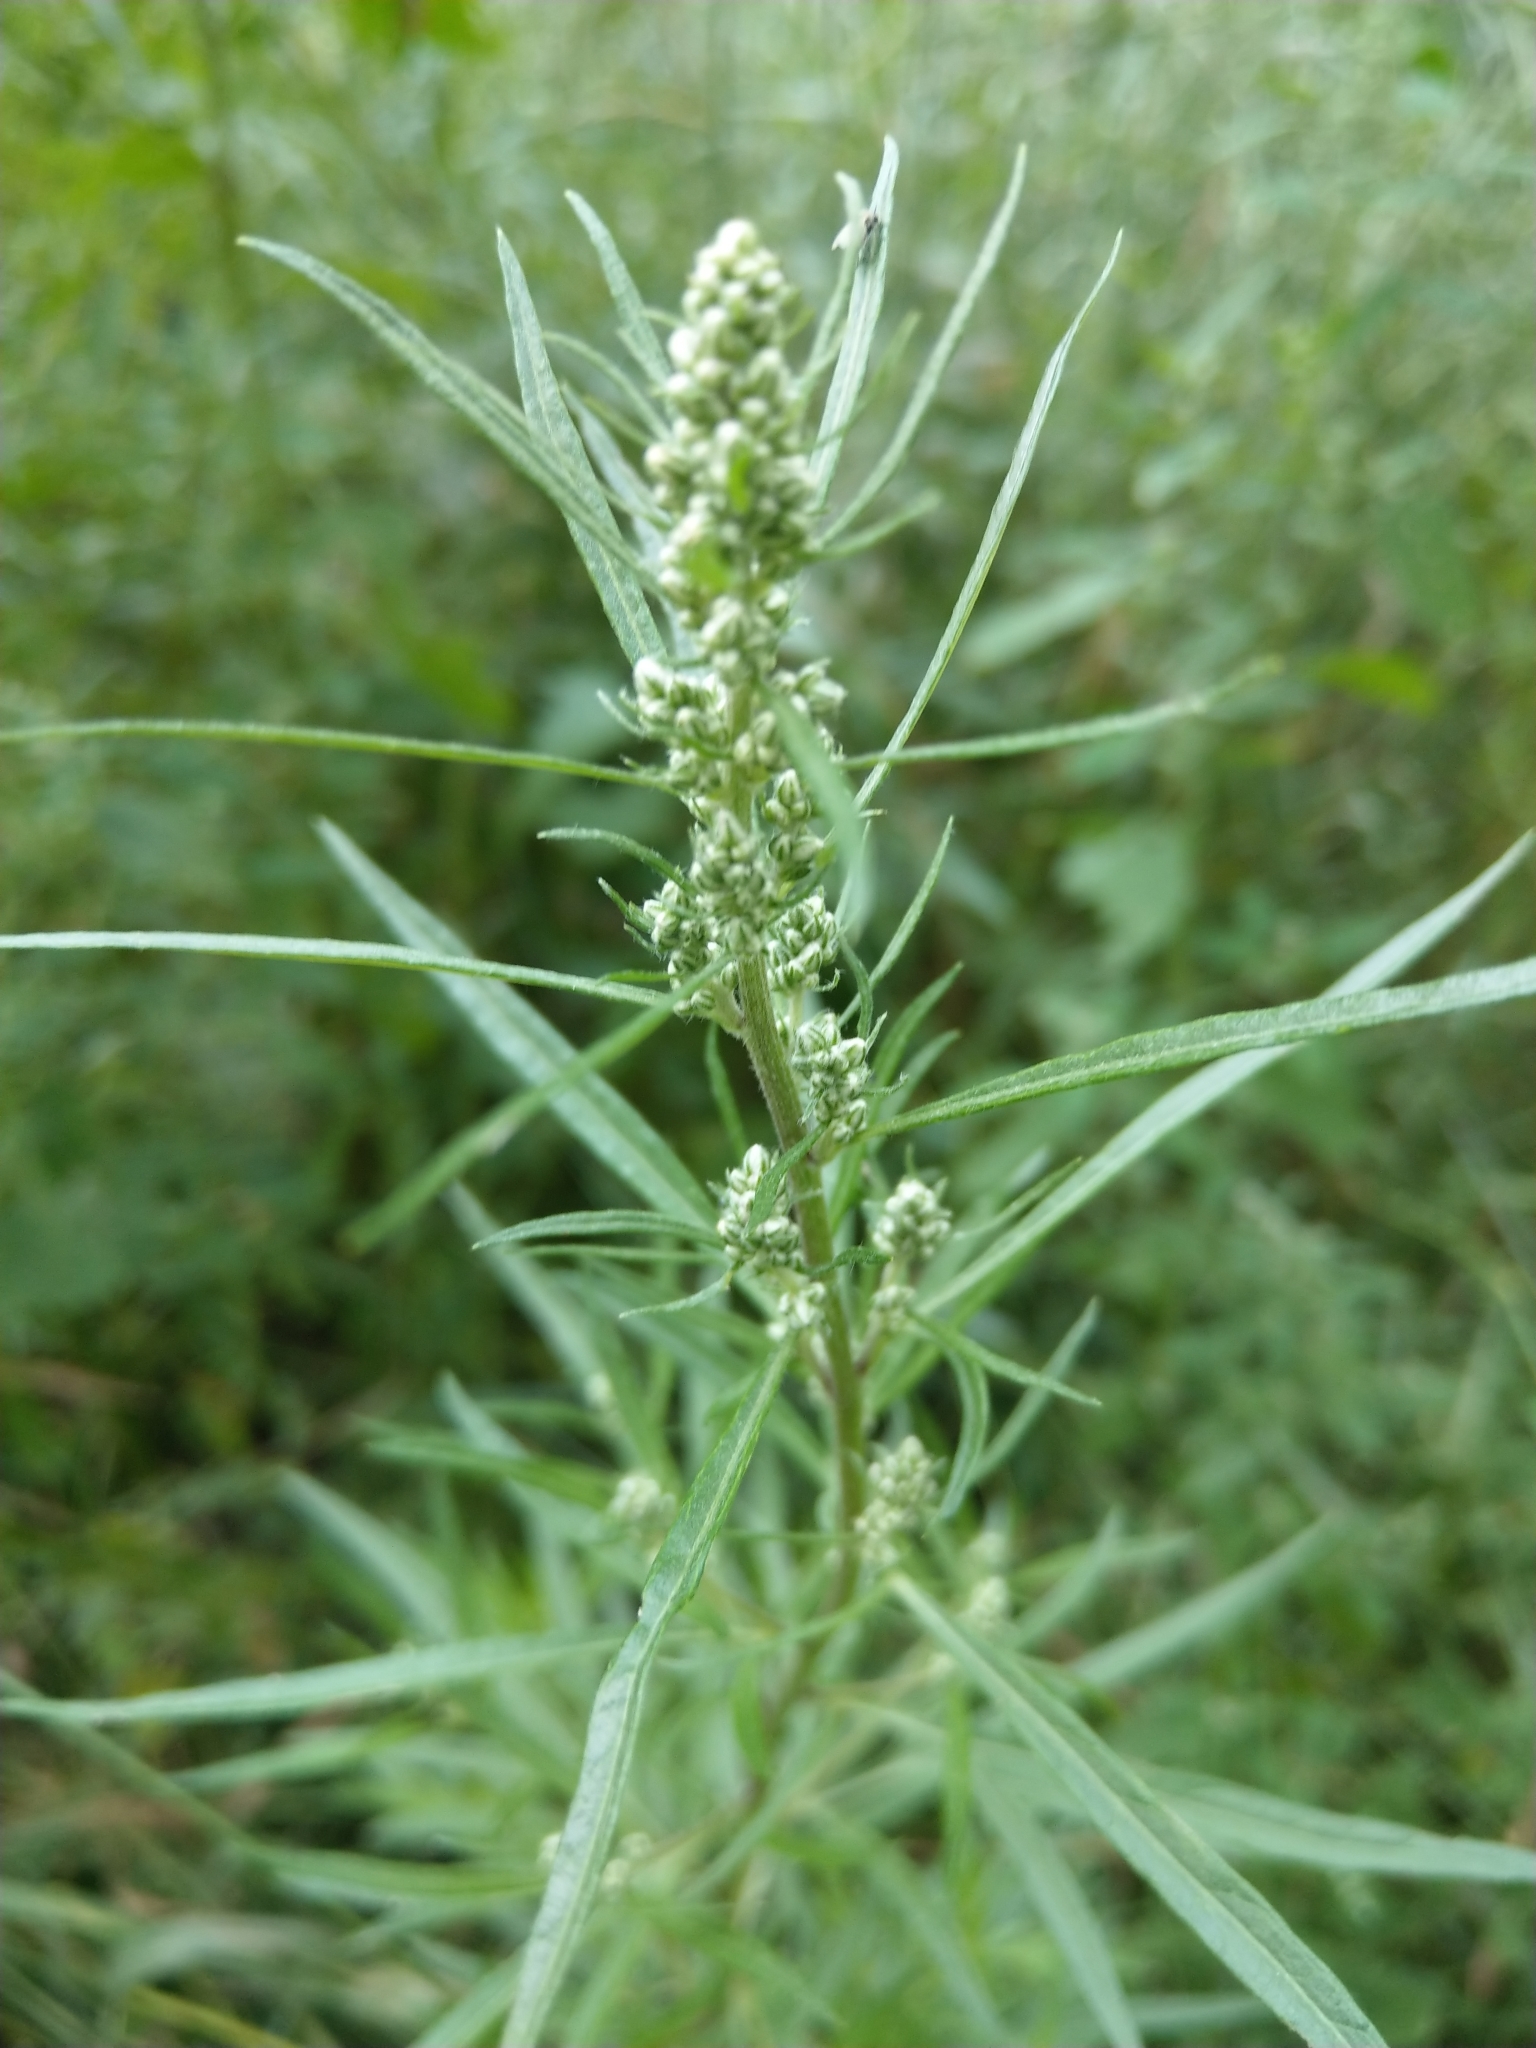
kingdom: Plantae
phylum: Tracheophyta
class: Magnoliopsida
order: Asterales
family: Asteraceae
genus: Artemisia
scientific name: Artemisia vulgaris
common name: Mugwort
